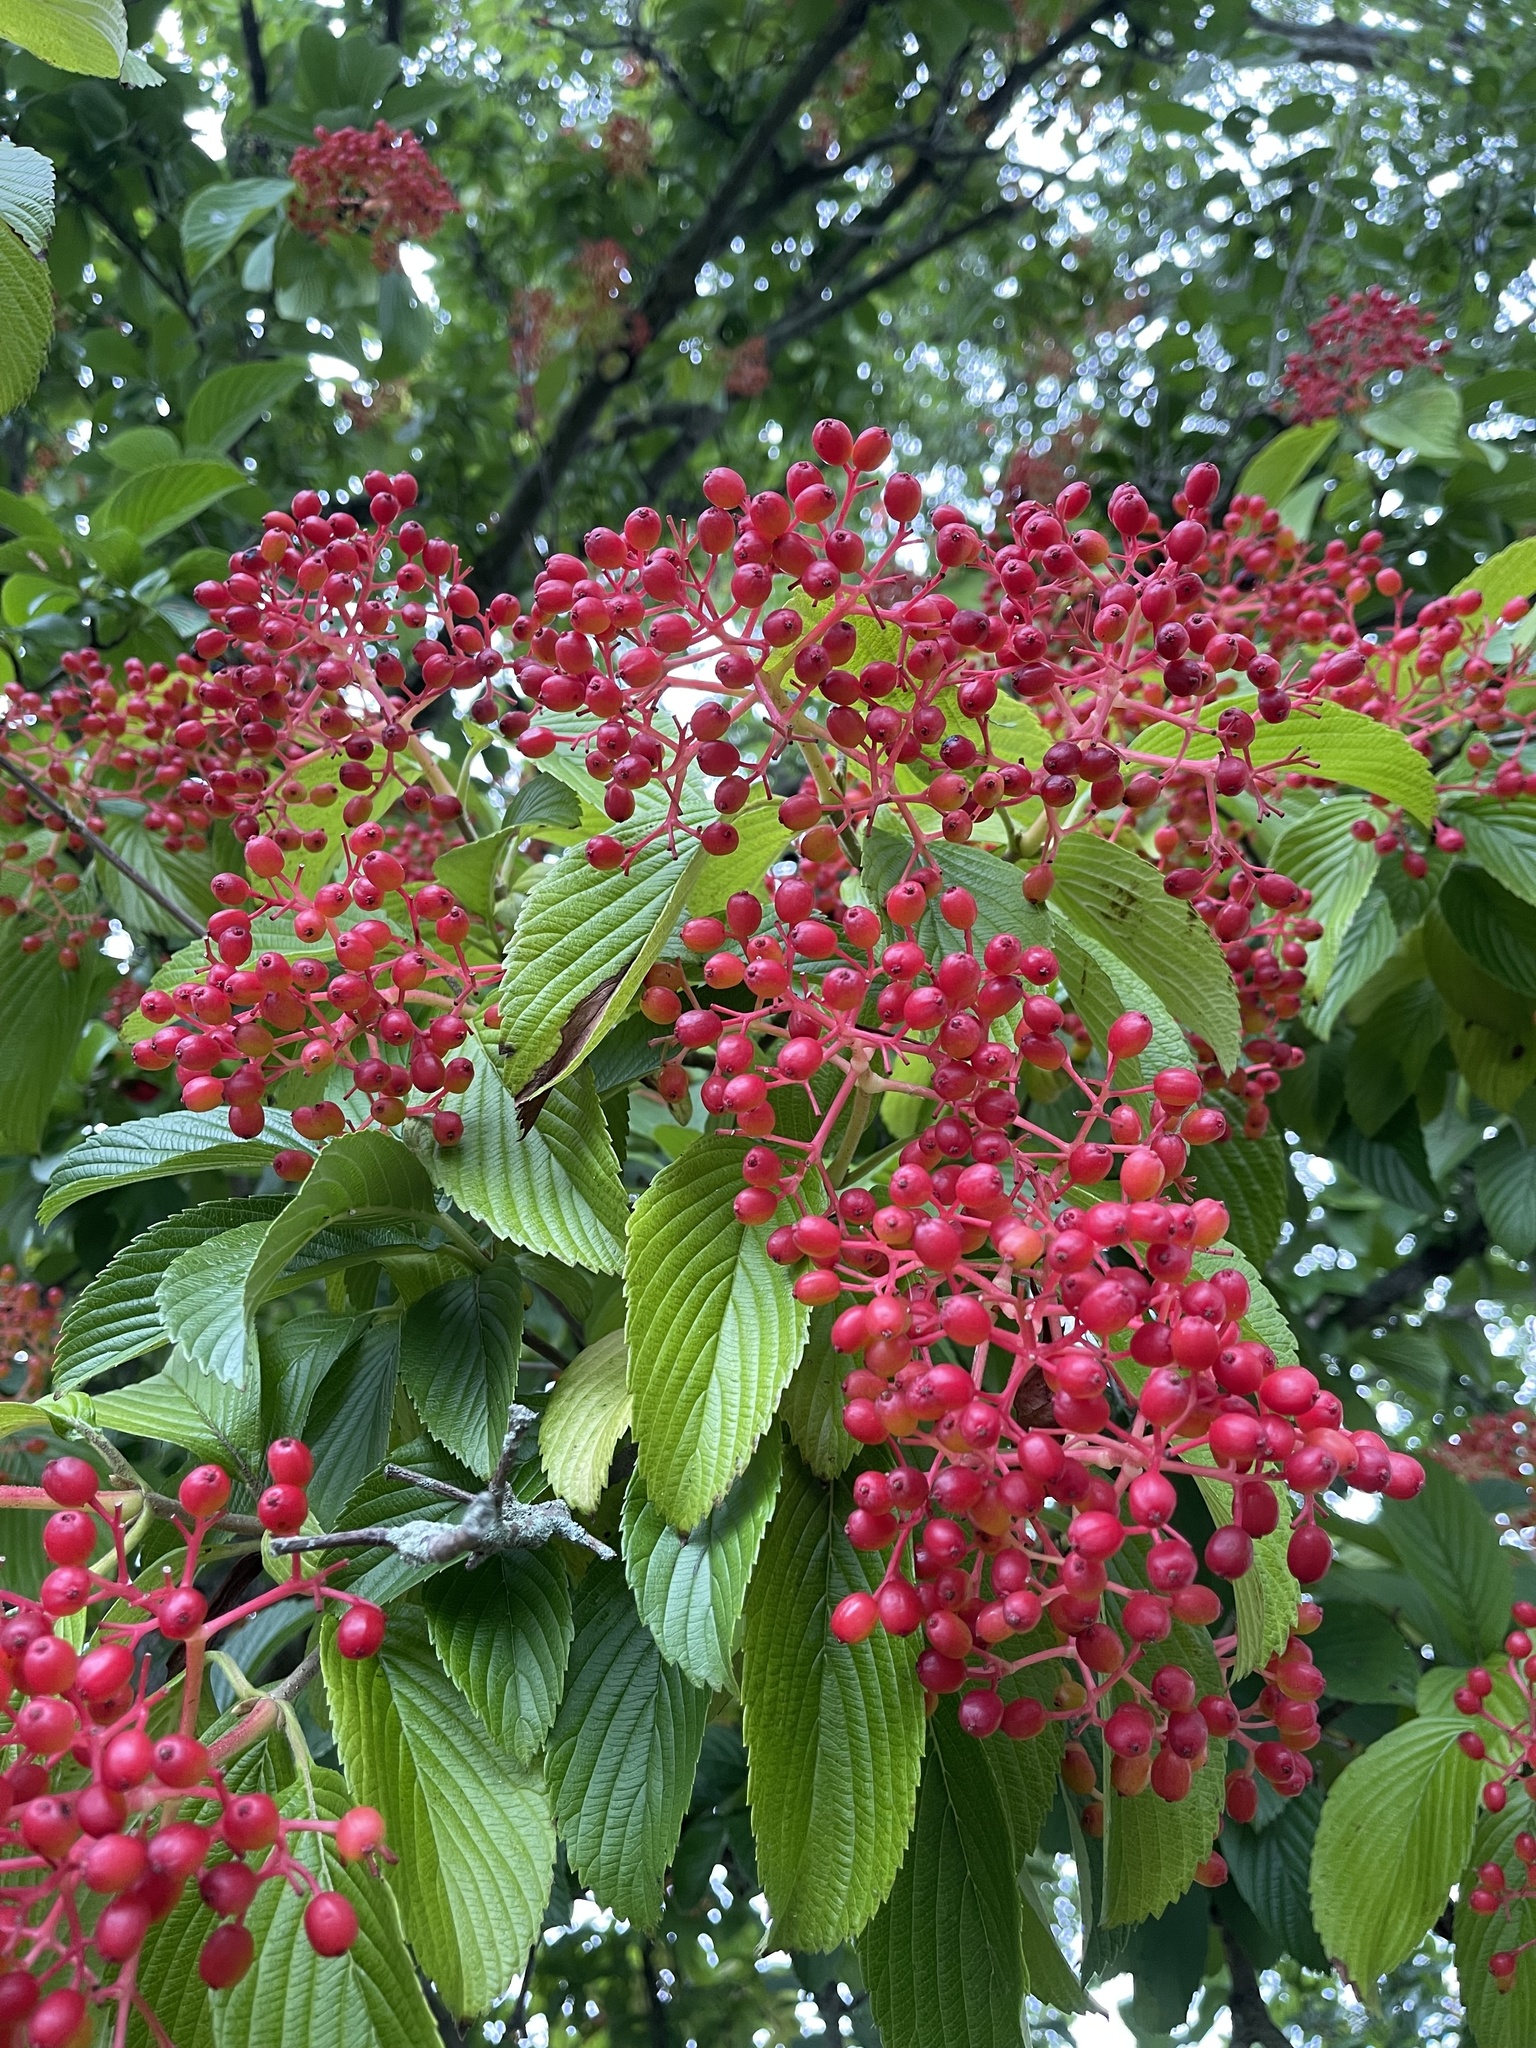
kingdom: Plantae
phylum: Tracheophyta
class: Magnoliopsida
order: Dipsacales
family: Viburnaceae
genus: Viburnum
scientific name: Viburnum sieboldii
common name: Siebold's arrowwood
